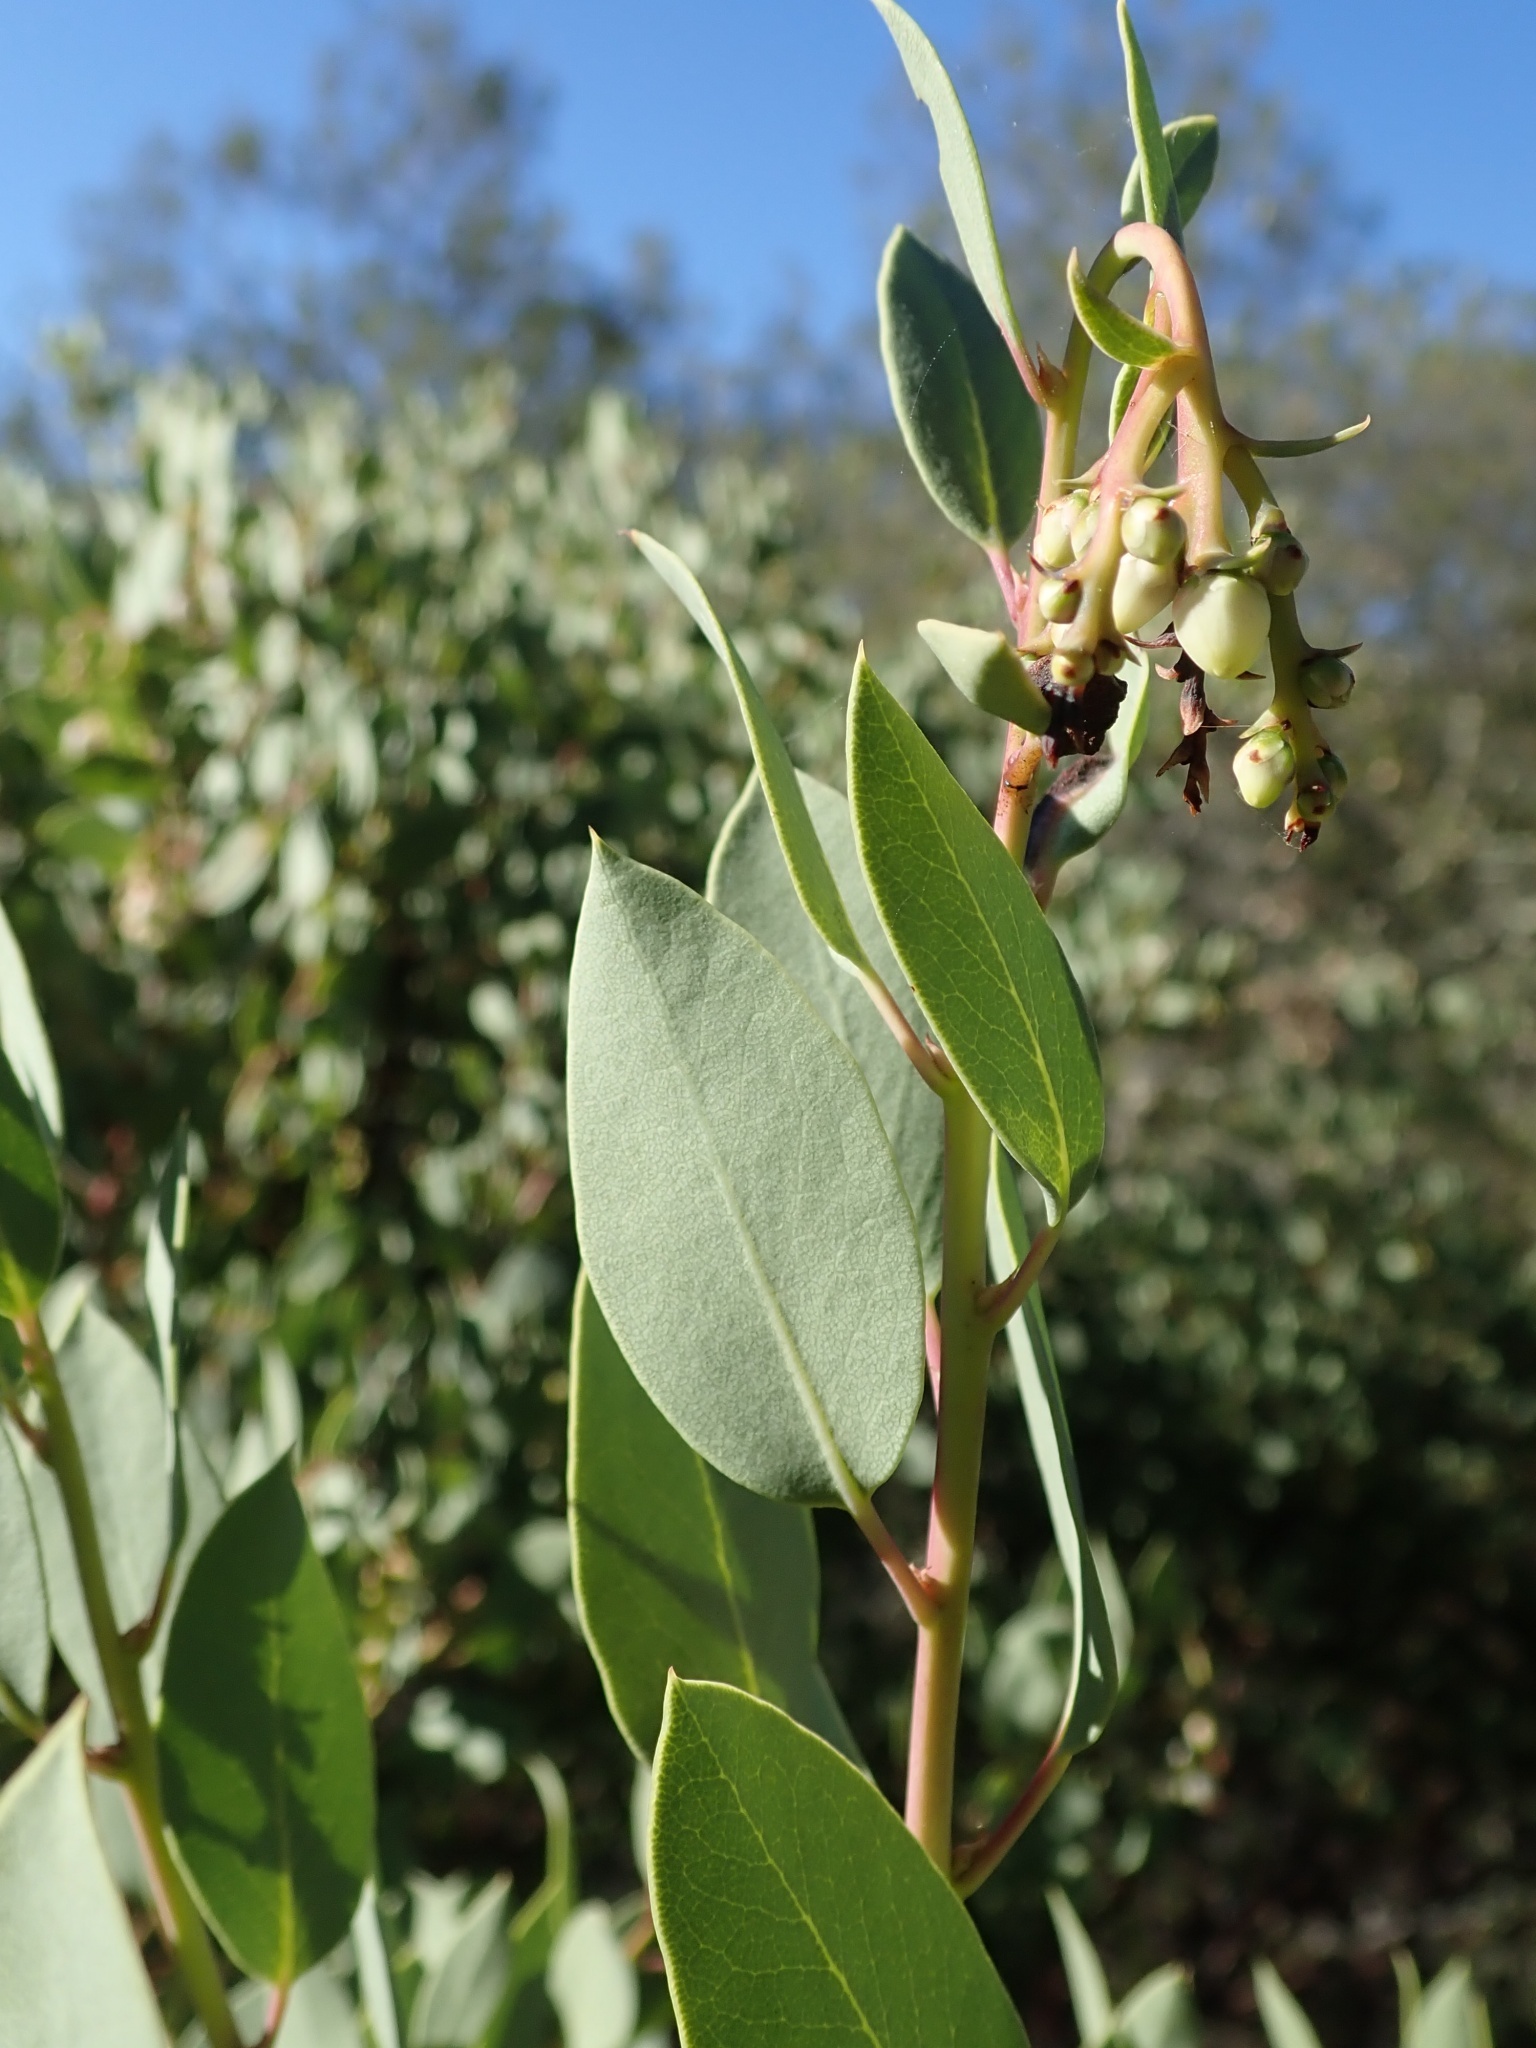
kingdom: Plantae
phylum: Tracheophyta
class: Magnoliopsida
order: Ericales
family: Ericaceae
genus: Arctostaphylos
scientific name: Arctostaphylos glauca
